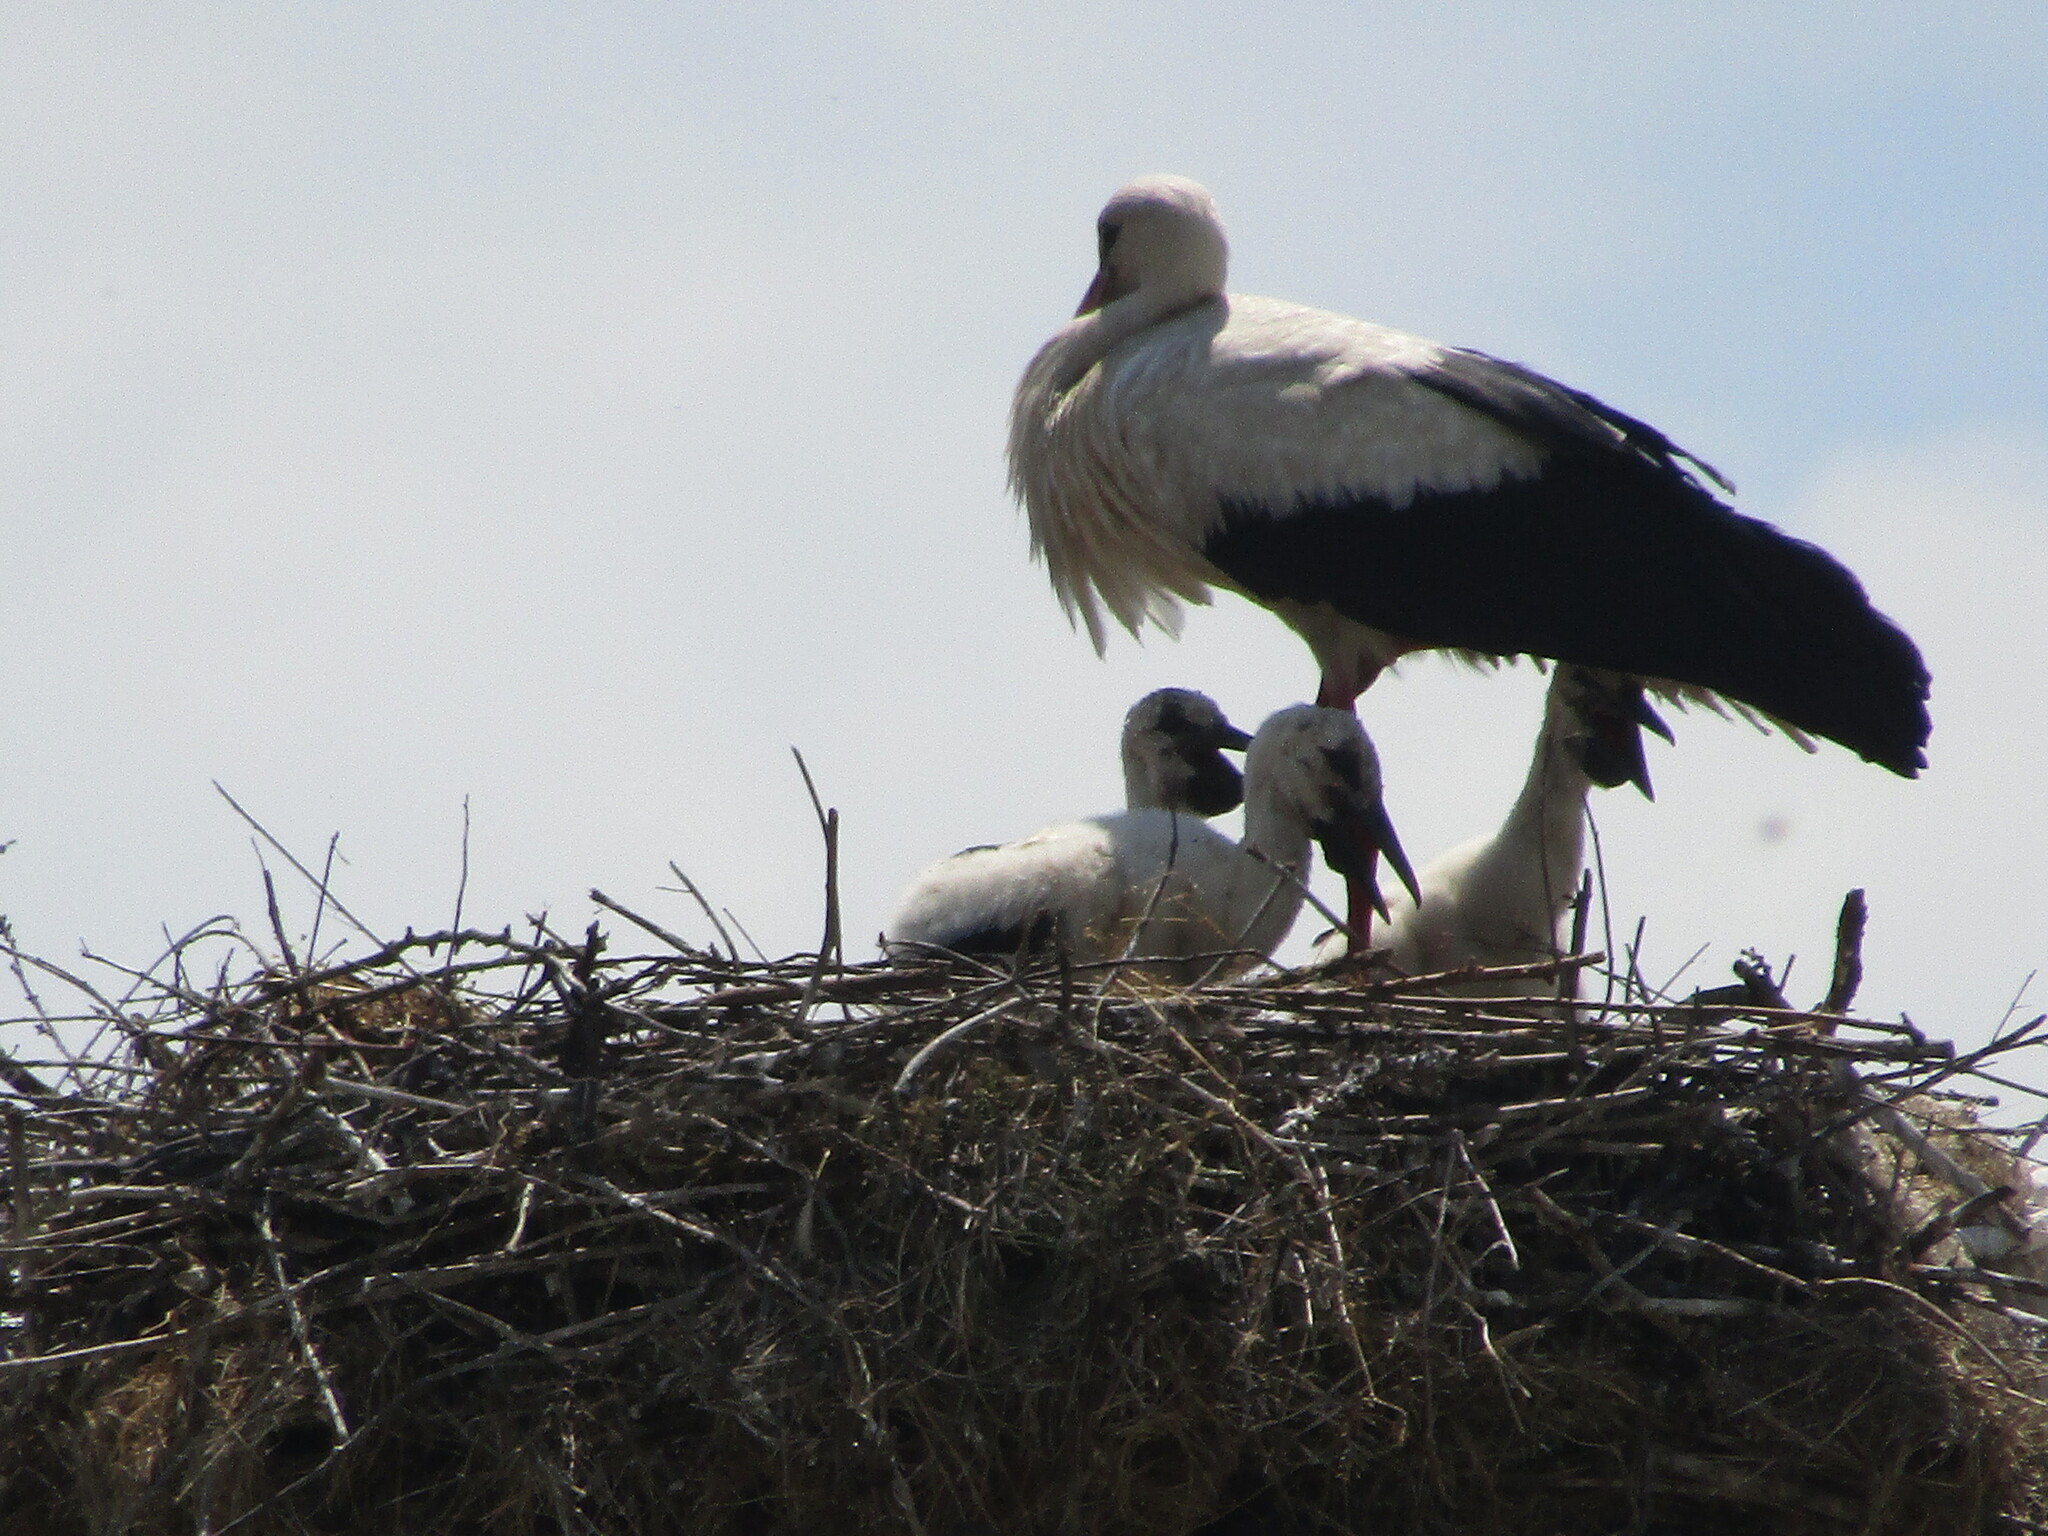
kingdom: Animalia
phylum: Chordata
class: Aves
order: Ciconiiformes
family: Ciconiidae
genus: Ciconia
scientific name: Ciconia ciconia
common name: White stork
